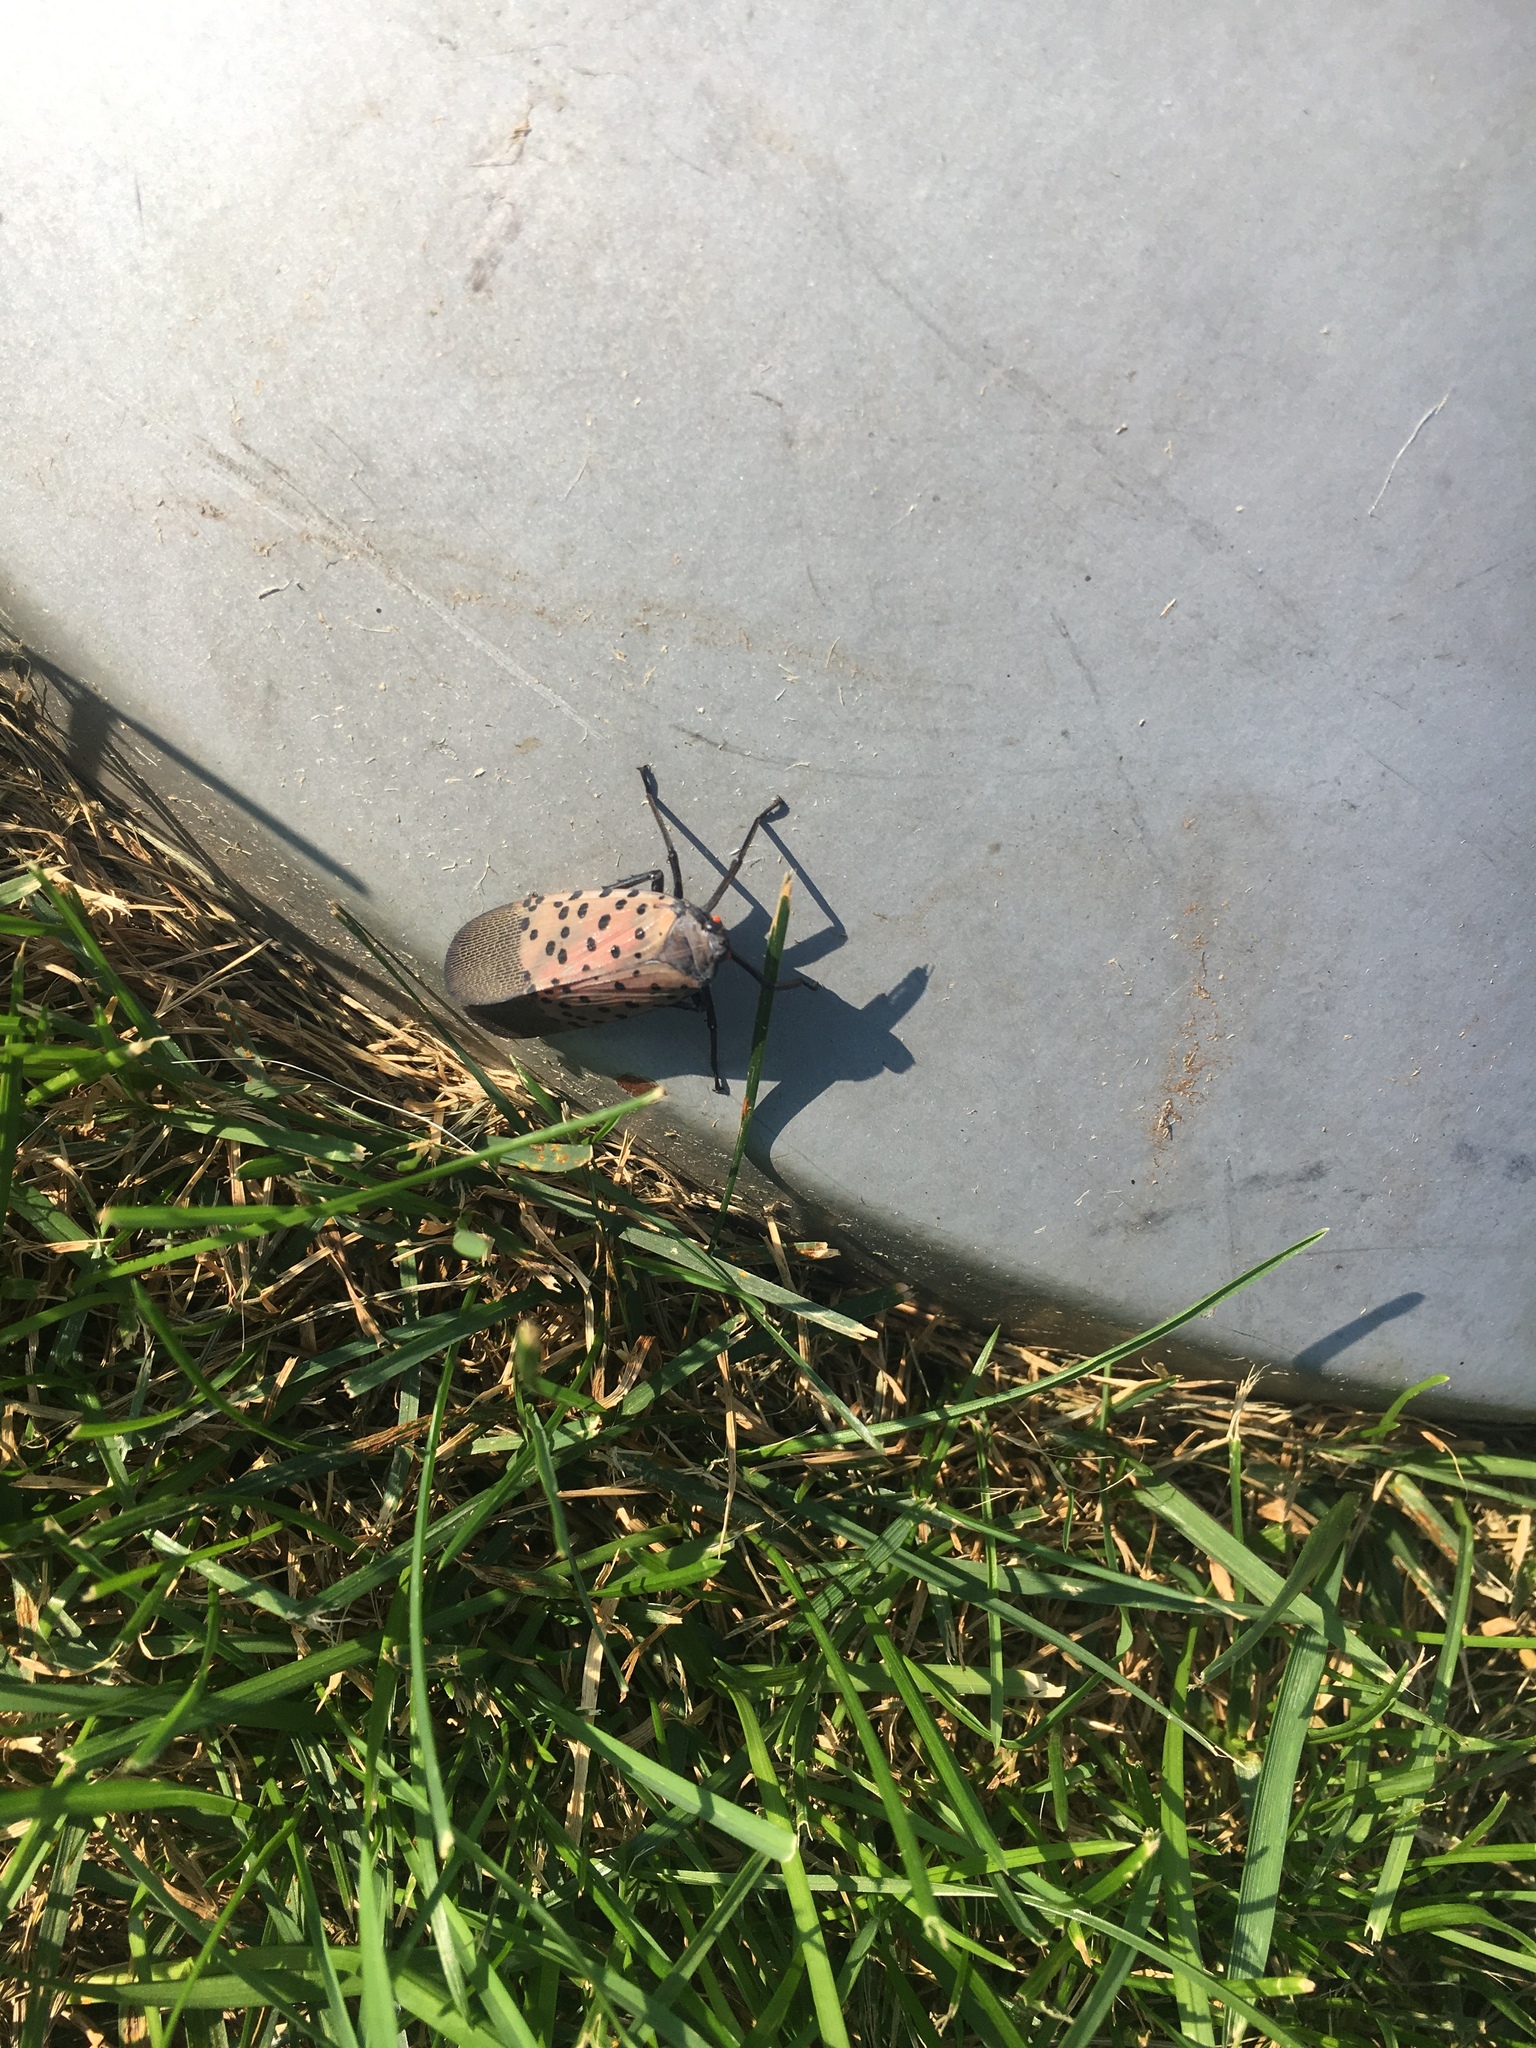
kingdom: Animalia
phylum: Arthropoda
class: Insecta
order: Hemiptera
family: Fulgoridae
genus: Lycorma
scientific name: Lycorma delicatula
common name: Spotted lanternfly
